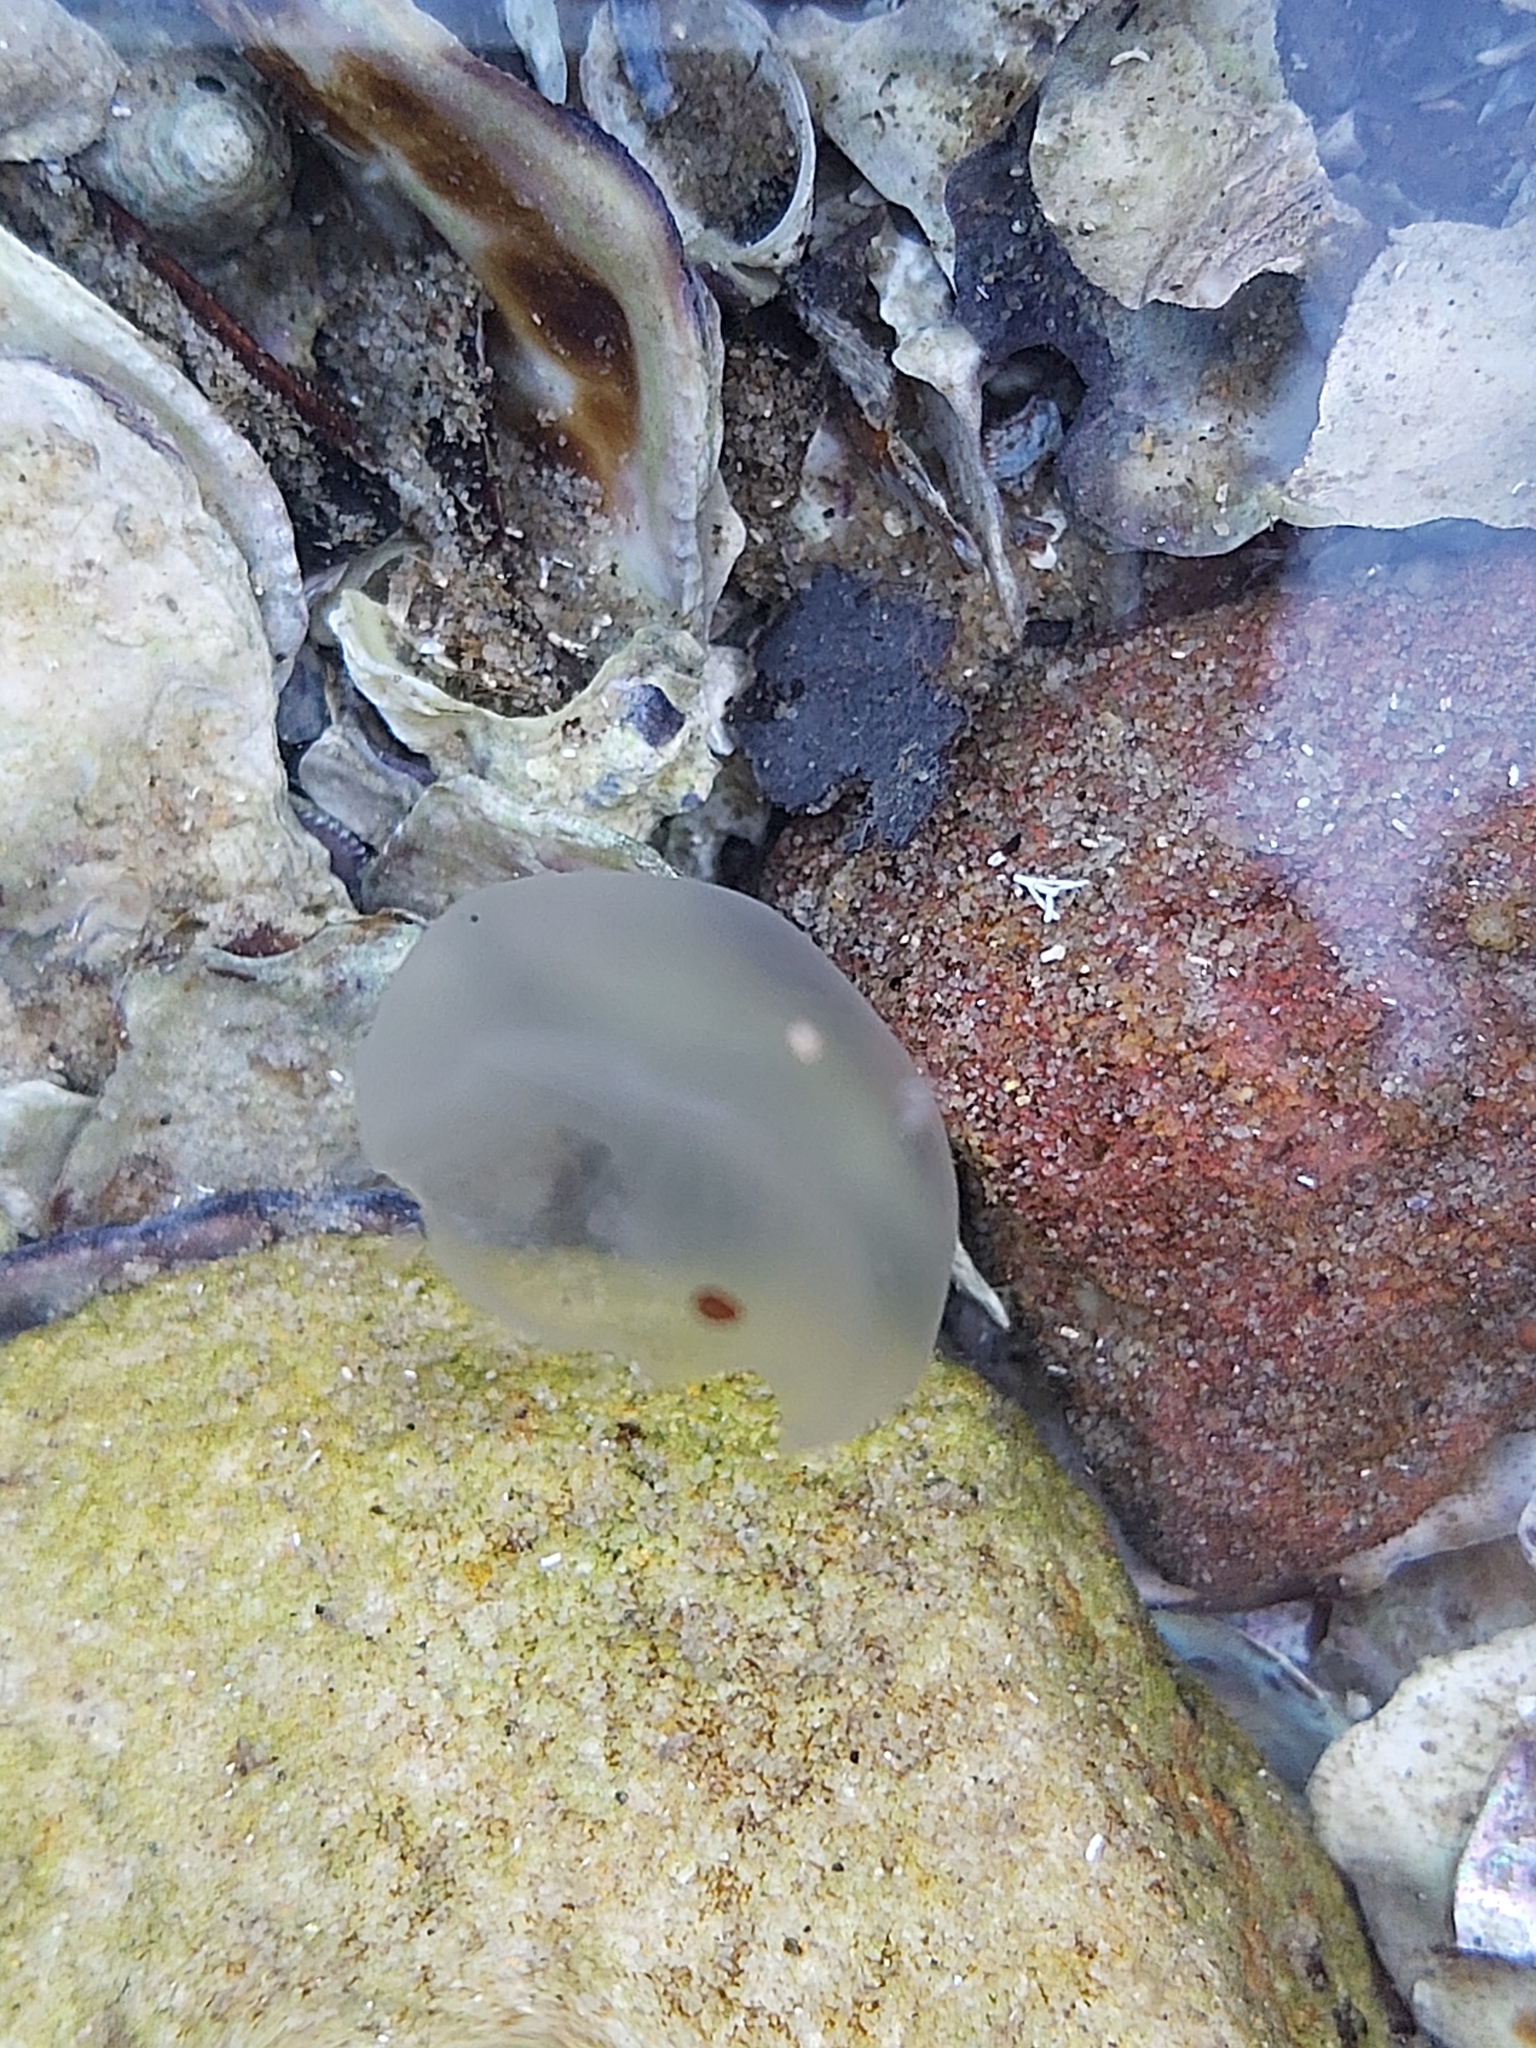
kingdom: Animalia
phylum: Cnidaria
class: Scyphozoa
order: Semaeostomeae
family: Ulmaridae
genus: Aurelia
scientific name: Aurelia
